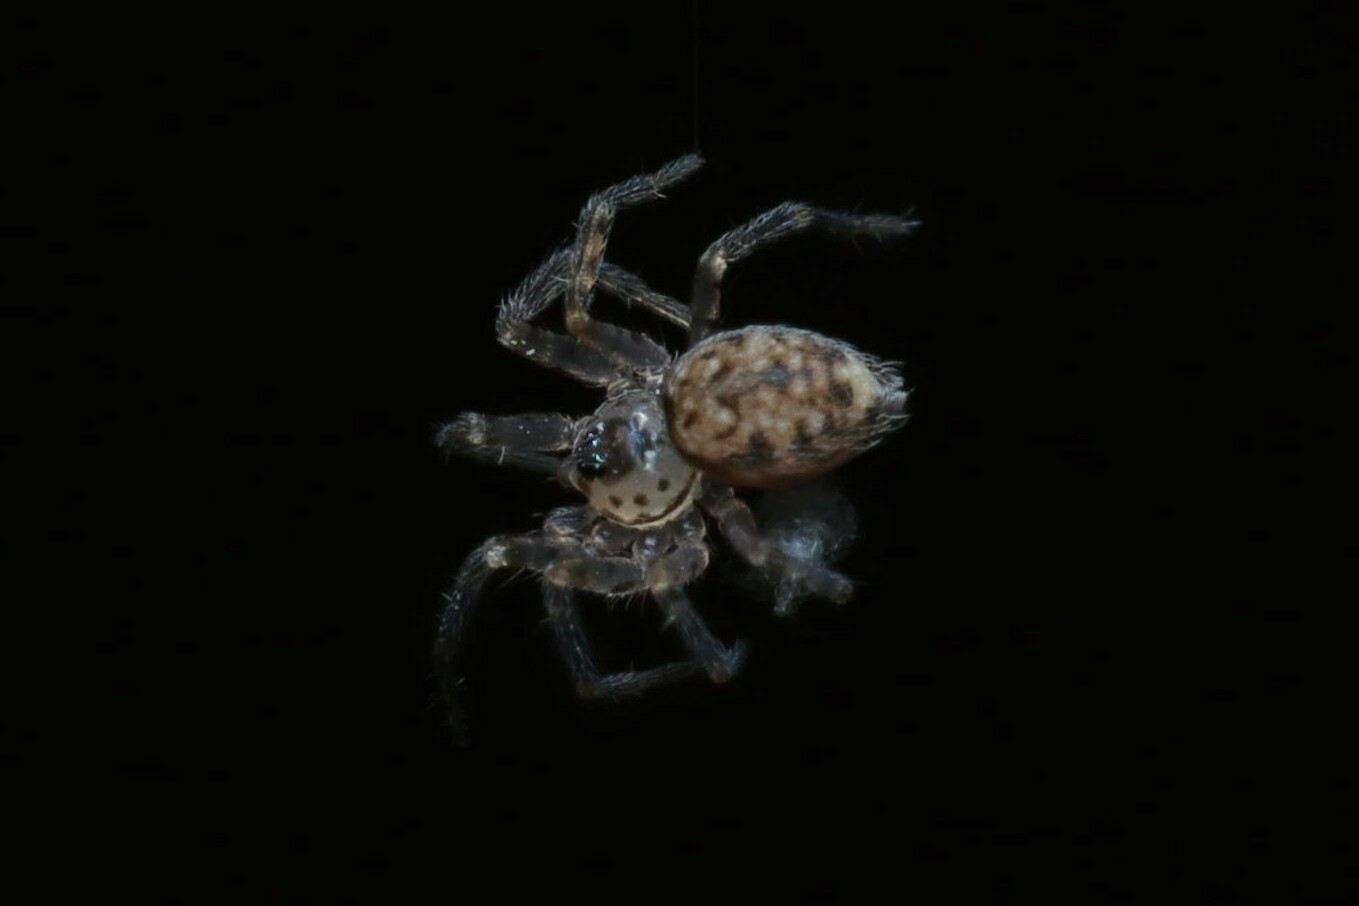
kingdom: Animalia
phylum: Arthropoda
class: Arachnida
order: Araneae
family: Oecobiidae
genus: Oecobius
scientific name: Oecobius navus
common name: Flatmesh weaver
